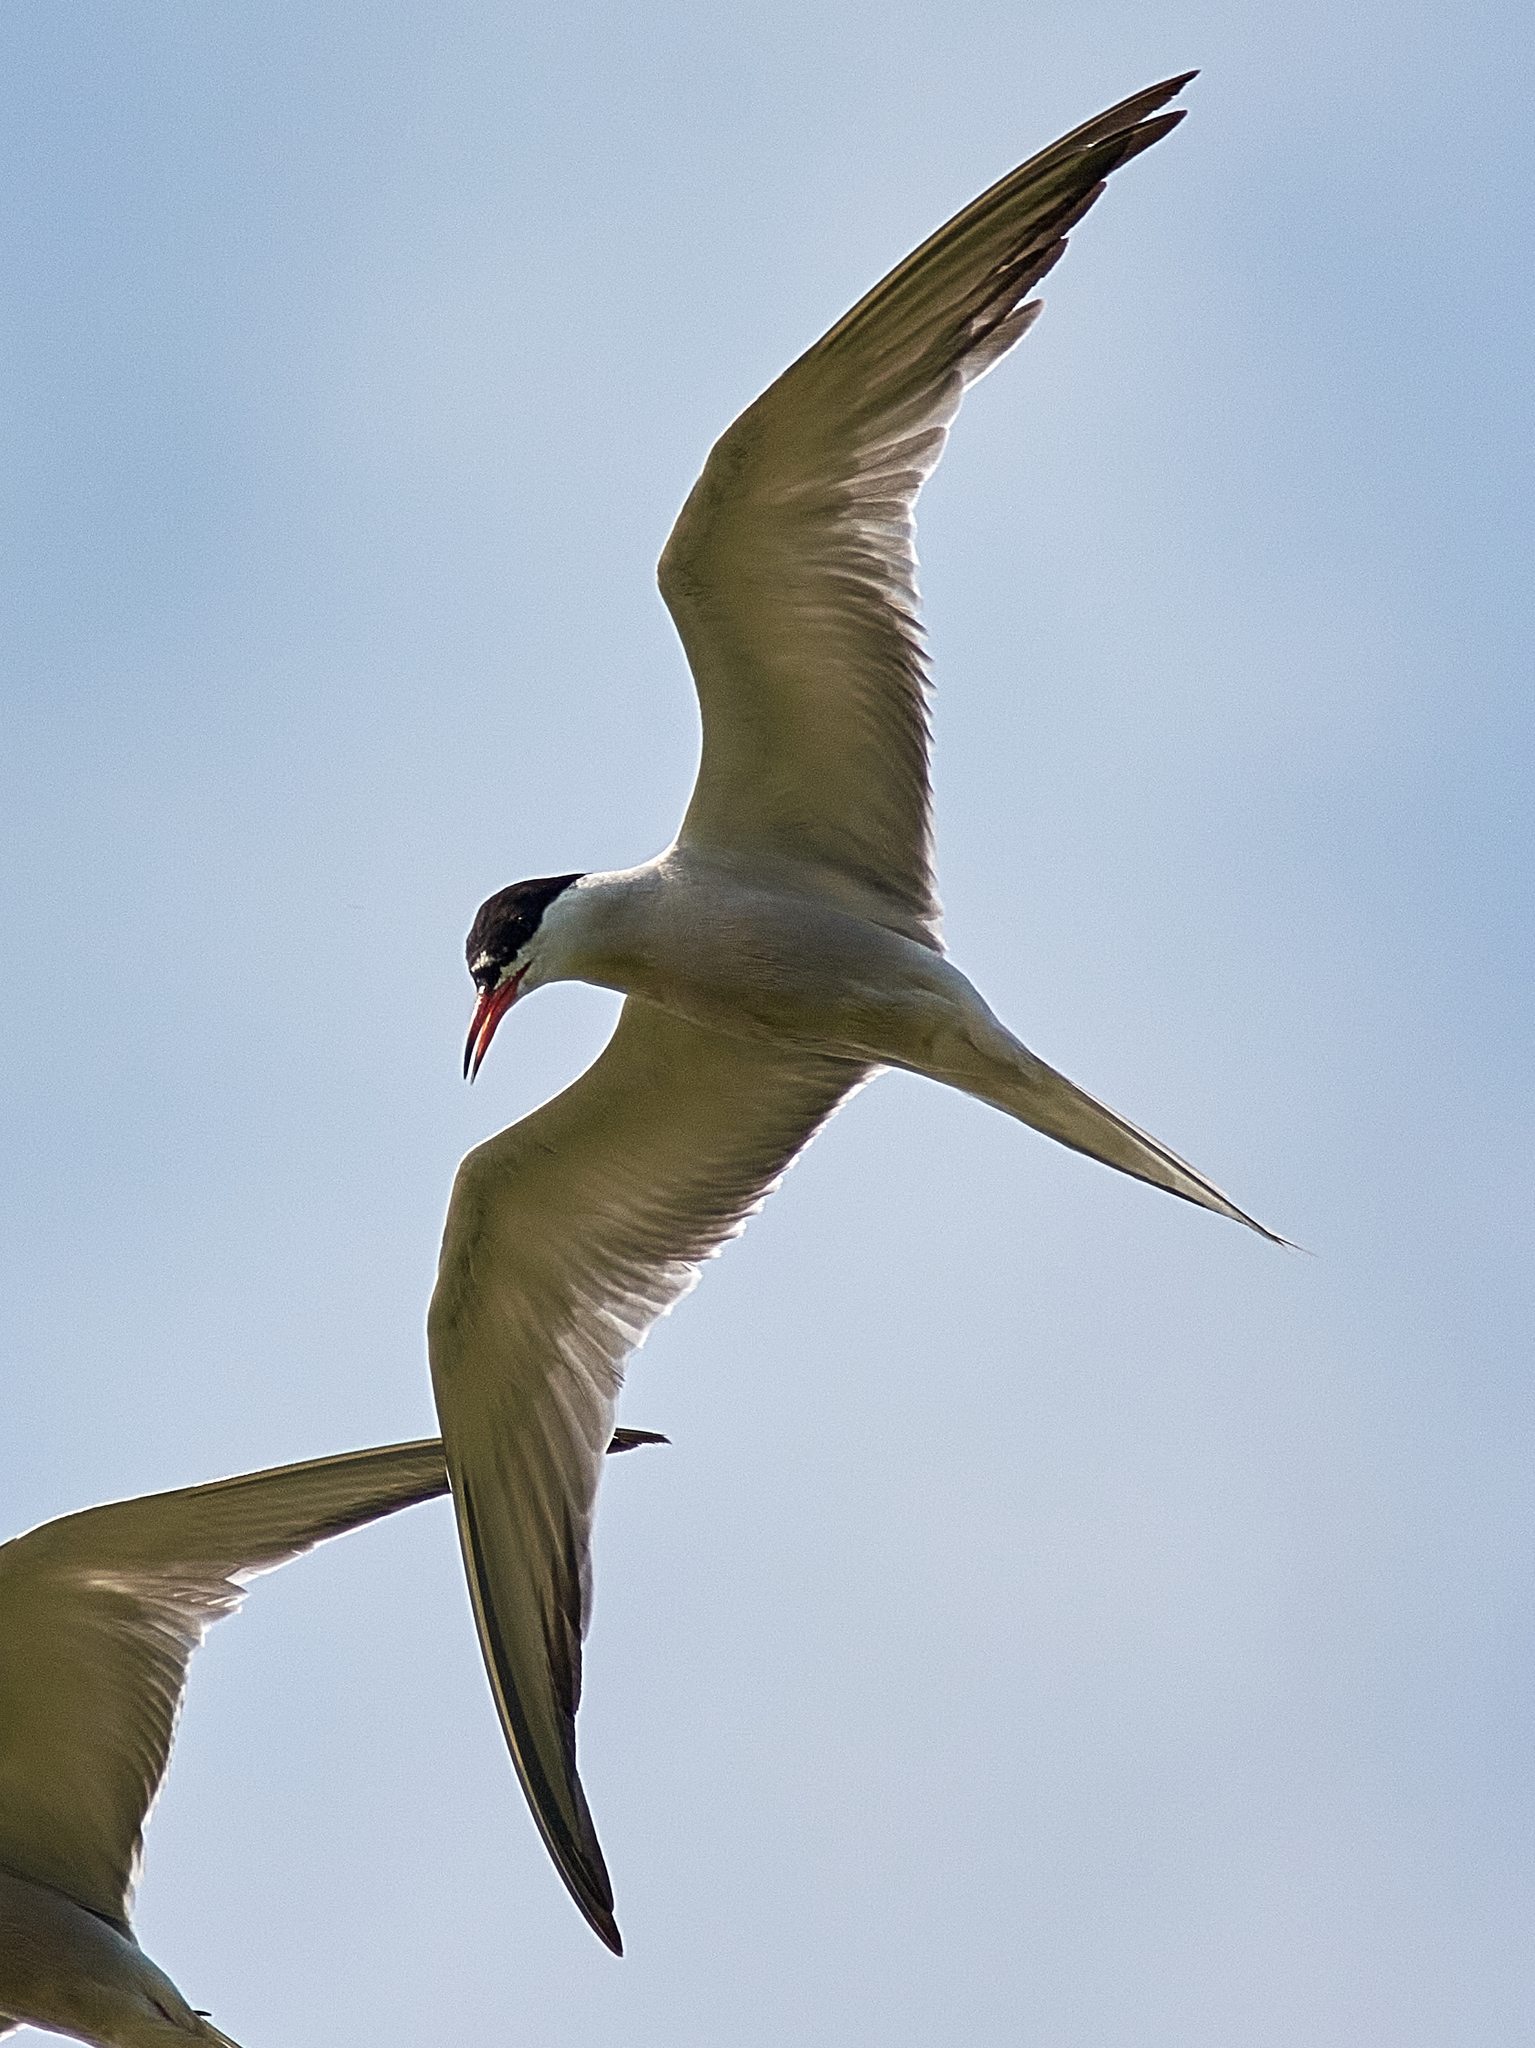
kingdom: Animalia
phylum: Chordata
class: Aves
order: Charadriiformes
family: Laridae
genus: Sterna
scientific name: Sterna hirundo
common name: Common tern
